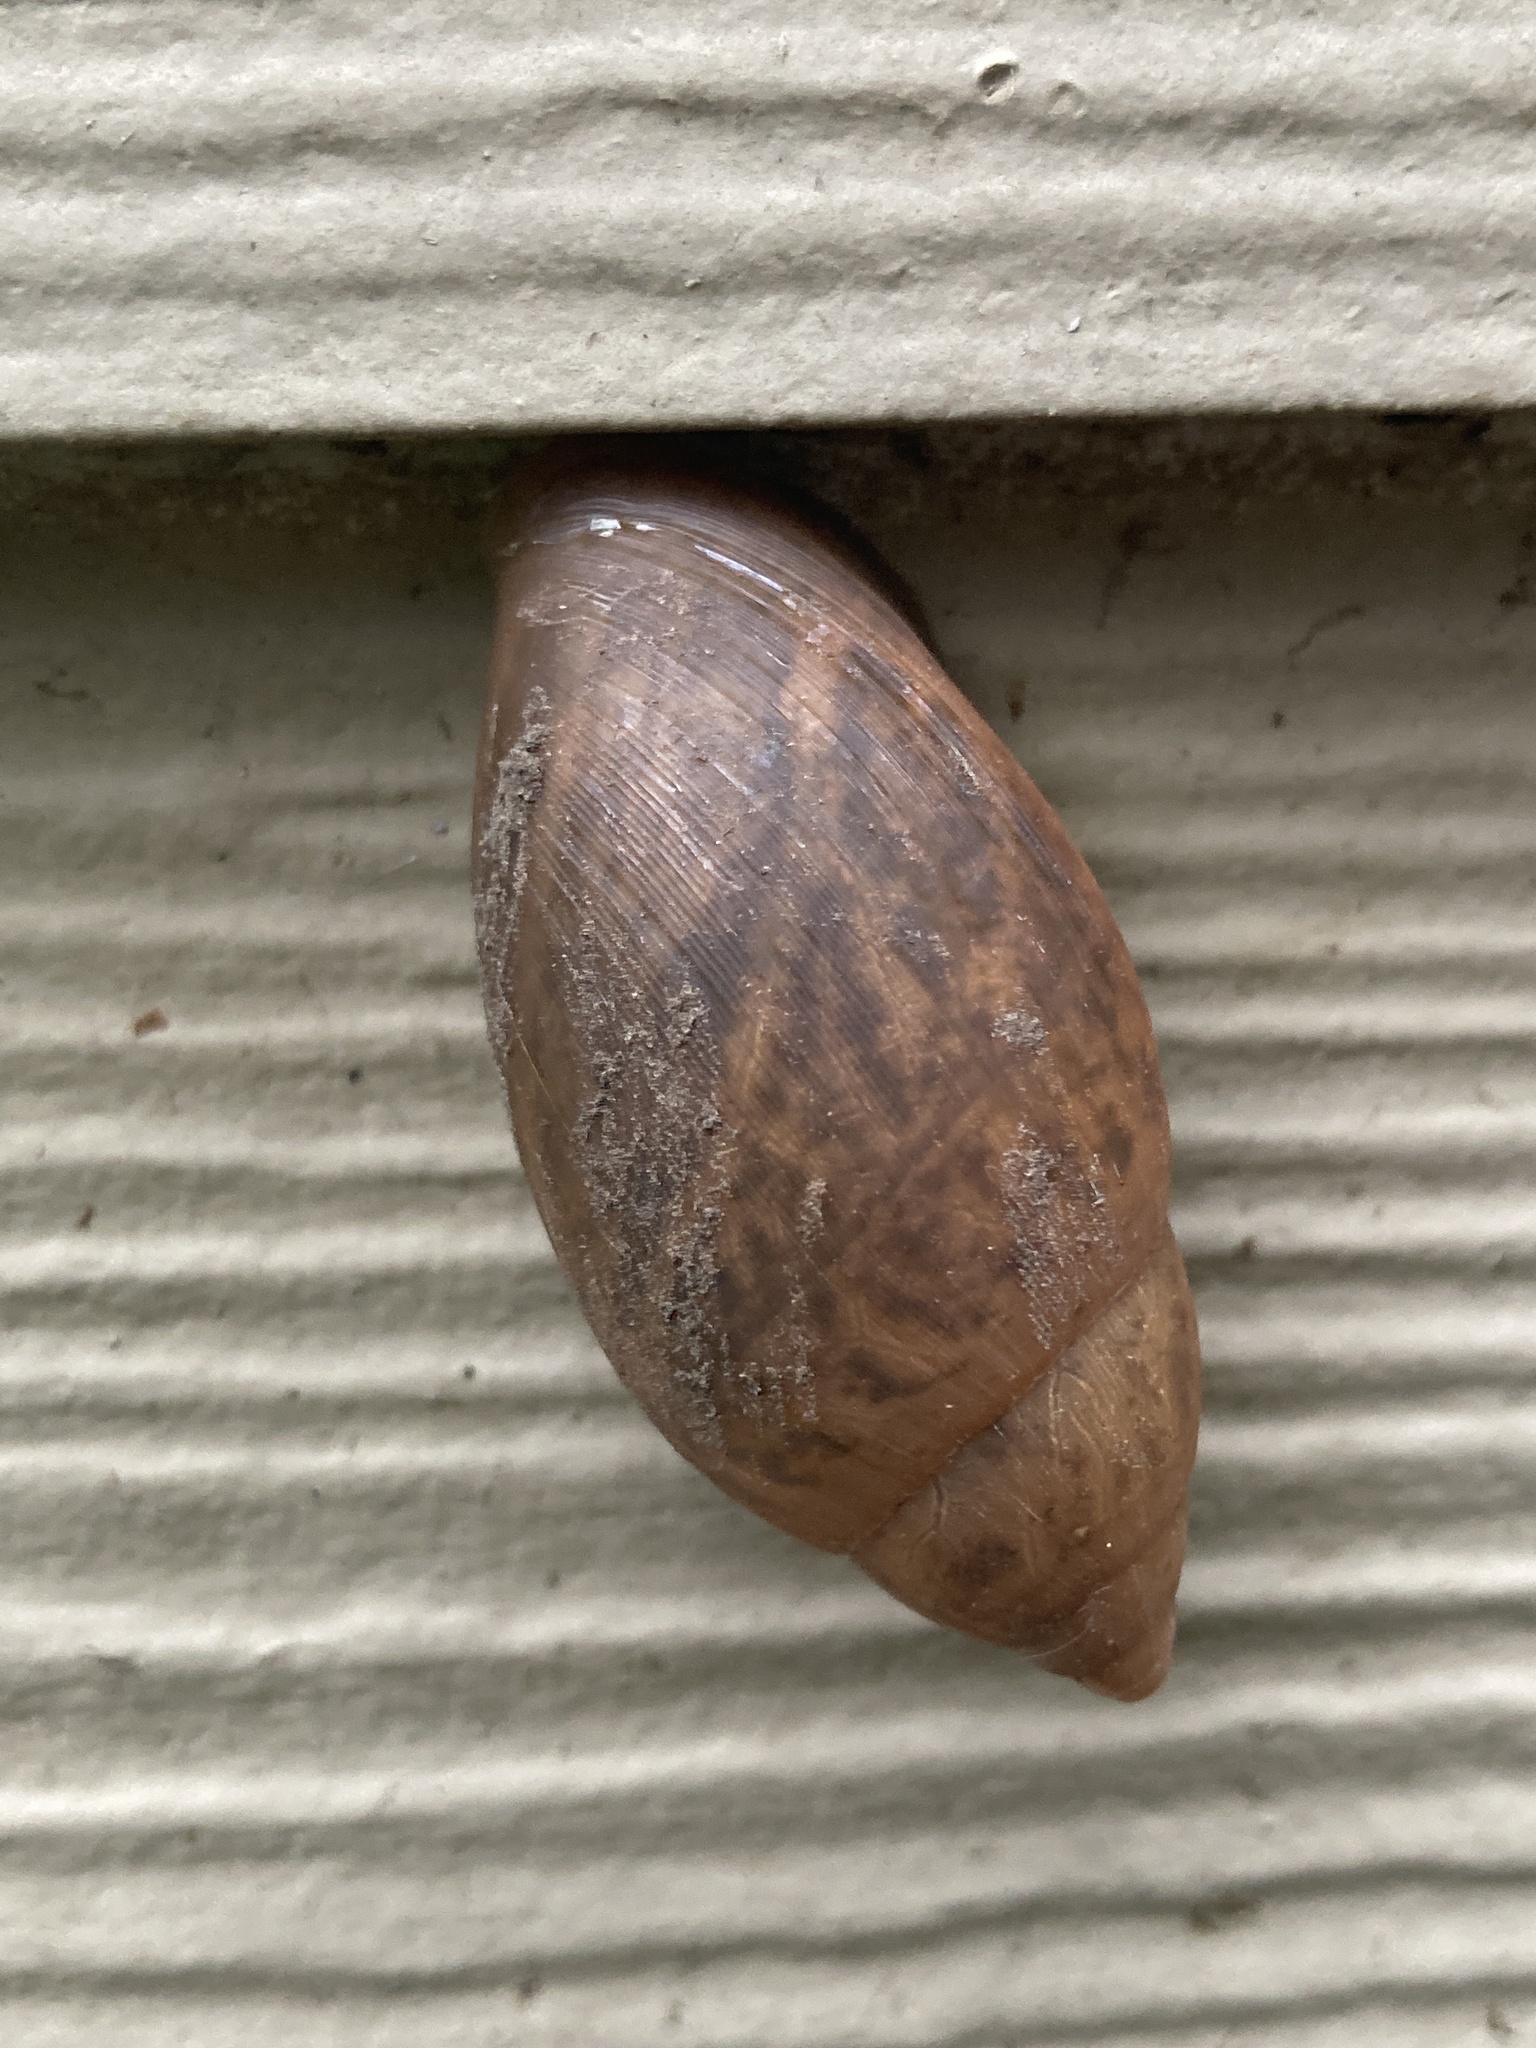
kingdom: Animalia
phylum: Mollusca
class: Gastropoda
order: Stylommatophora
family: Spiraxidae
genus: Euglandina
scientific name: Euglandina rosea
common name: Rosy wolfsnail
